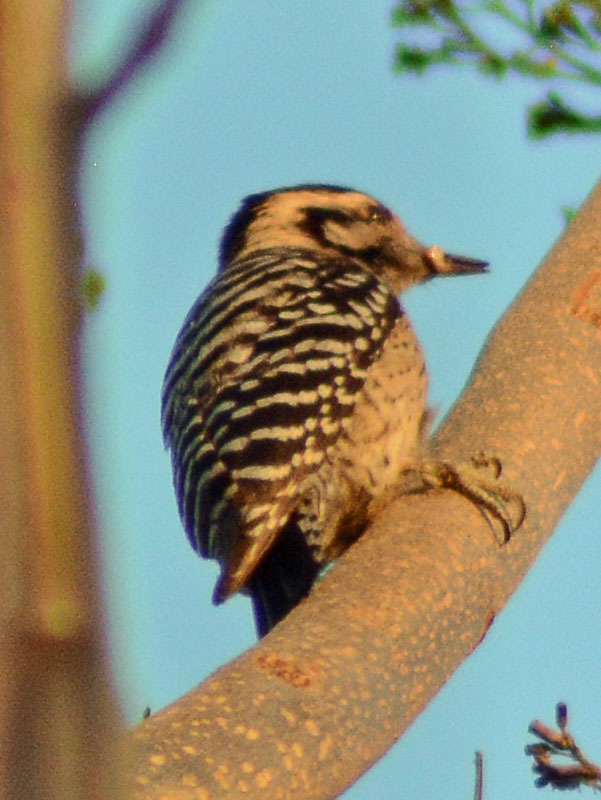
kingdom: Animalia
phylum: Chordata
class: Aves
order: Piciformes
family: Picidae
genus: Dryobates
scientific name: Dryobates scalaris
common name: Ladder-backed woodpecker
